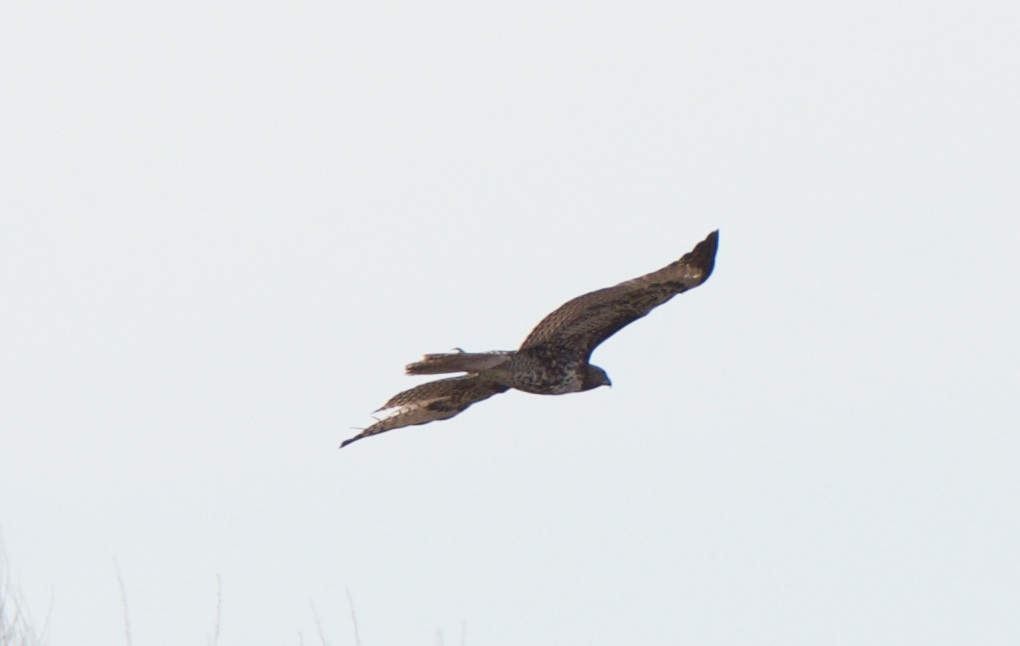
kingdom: Animalia
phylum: Chordata
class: Aves
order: Accipitriformes
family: Accipitridae
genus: Buteo
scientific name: Buteo jamaicensis
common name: Red-tailed hawk
